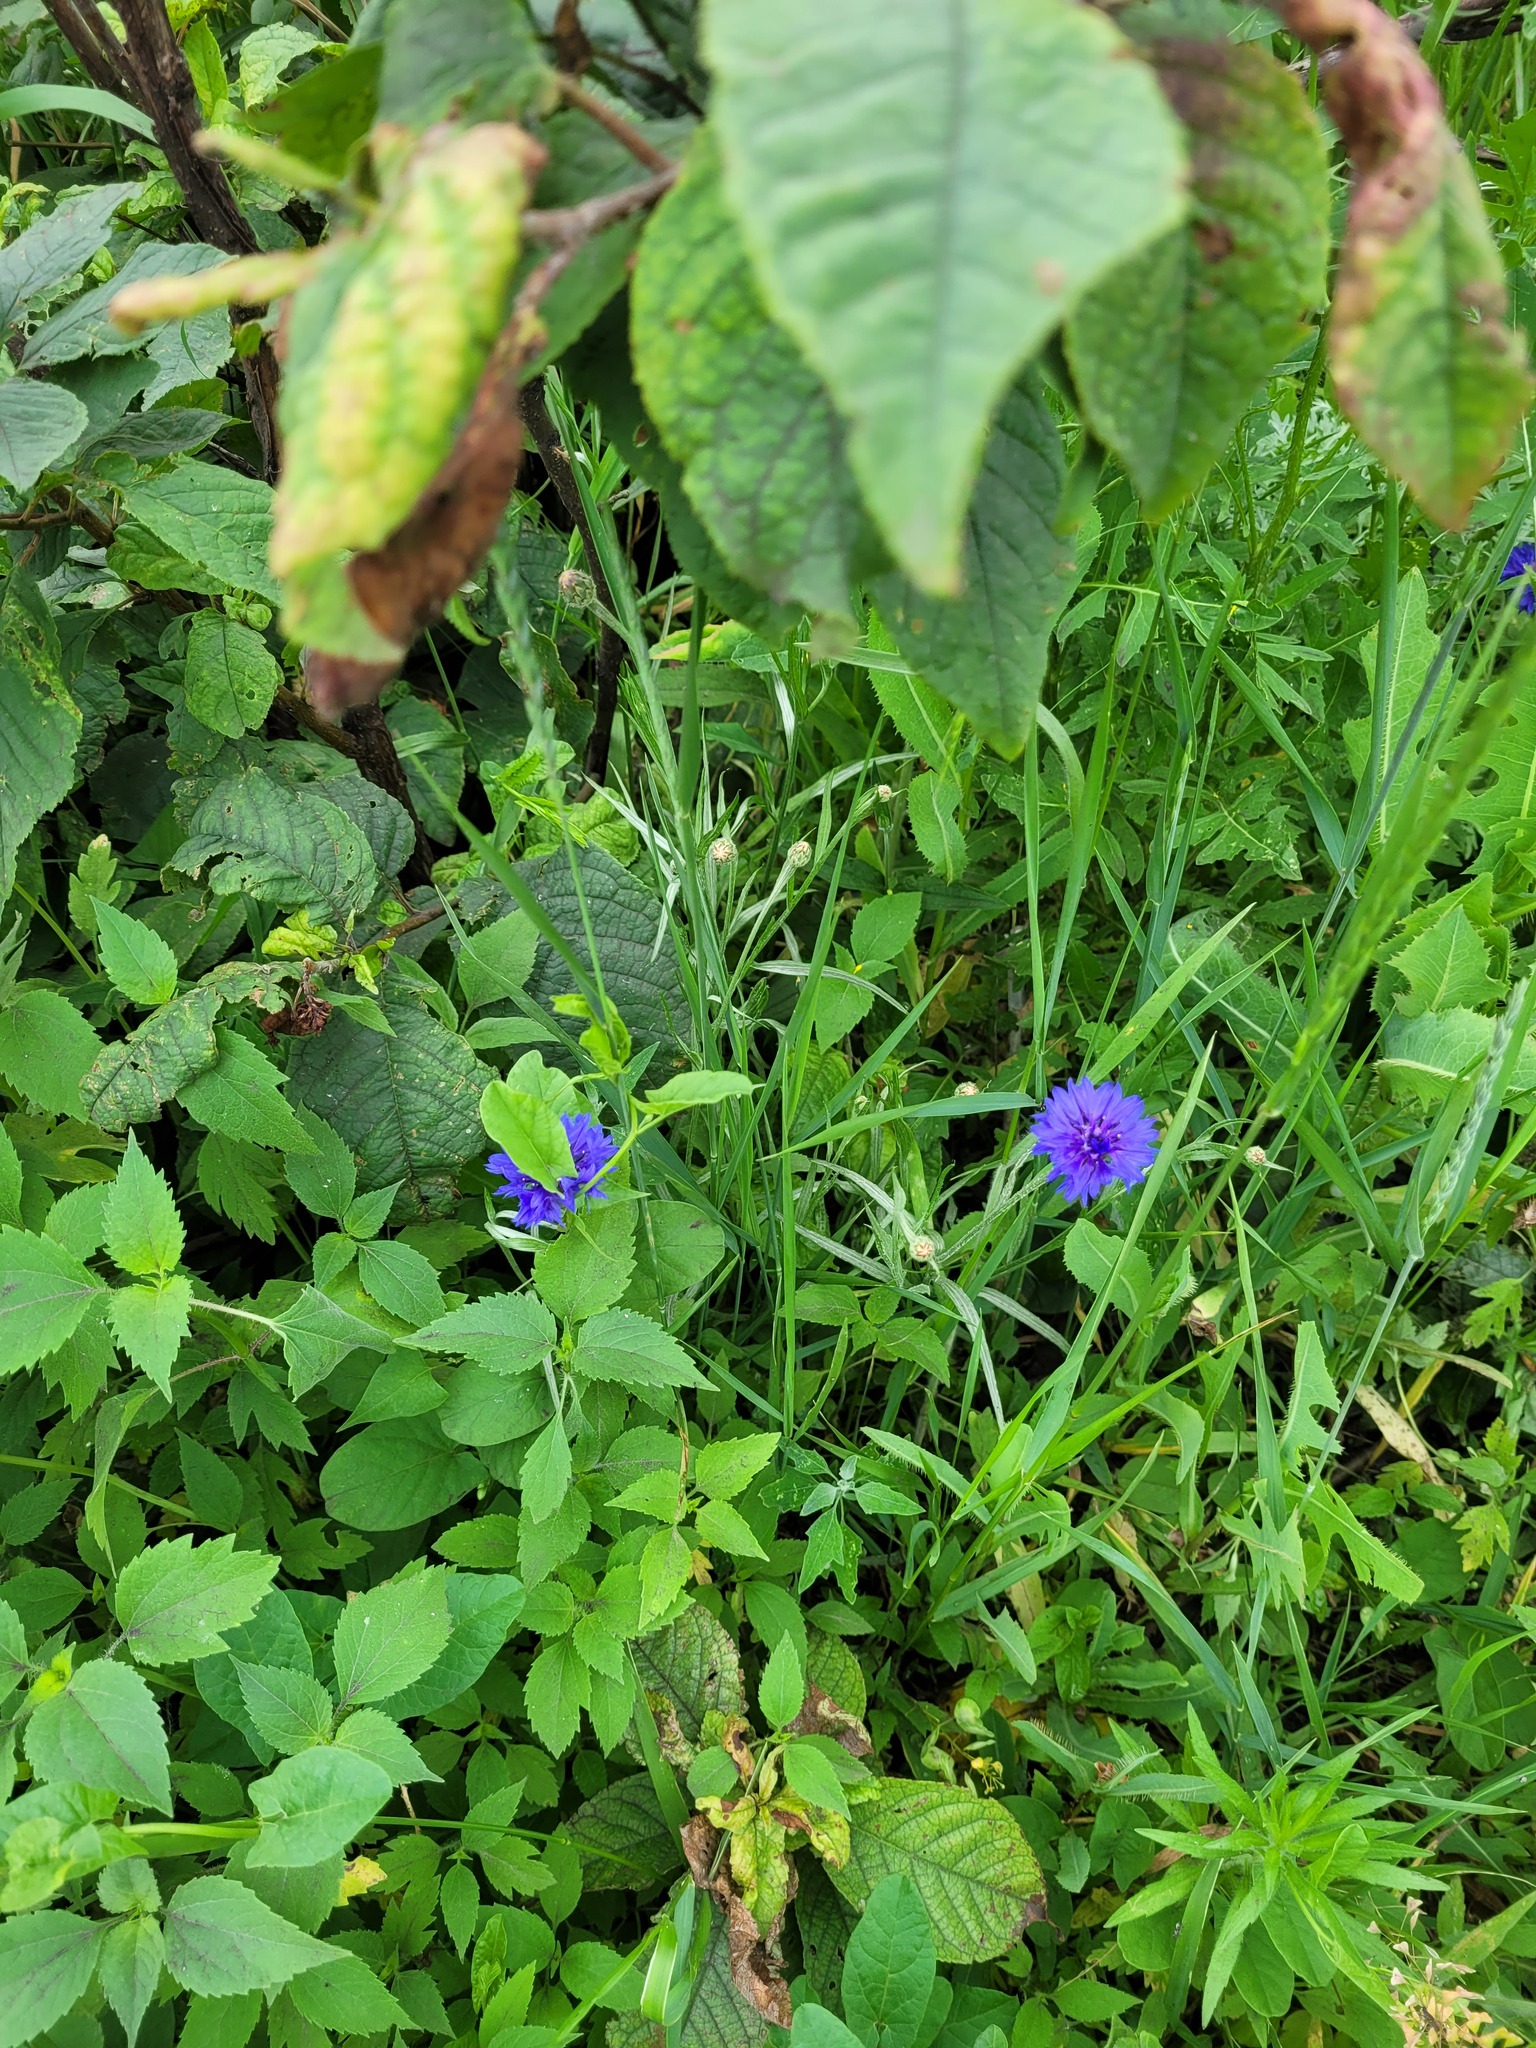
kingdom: Plantae
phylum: Tracheophyta
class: Magnoliopsida
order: Asterales
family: Asteraceae
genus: Centaurea
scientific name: Centaurea cyanus
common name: Cornflower
